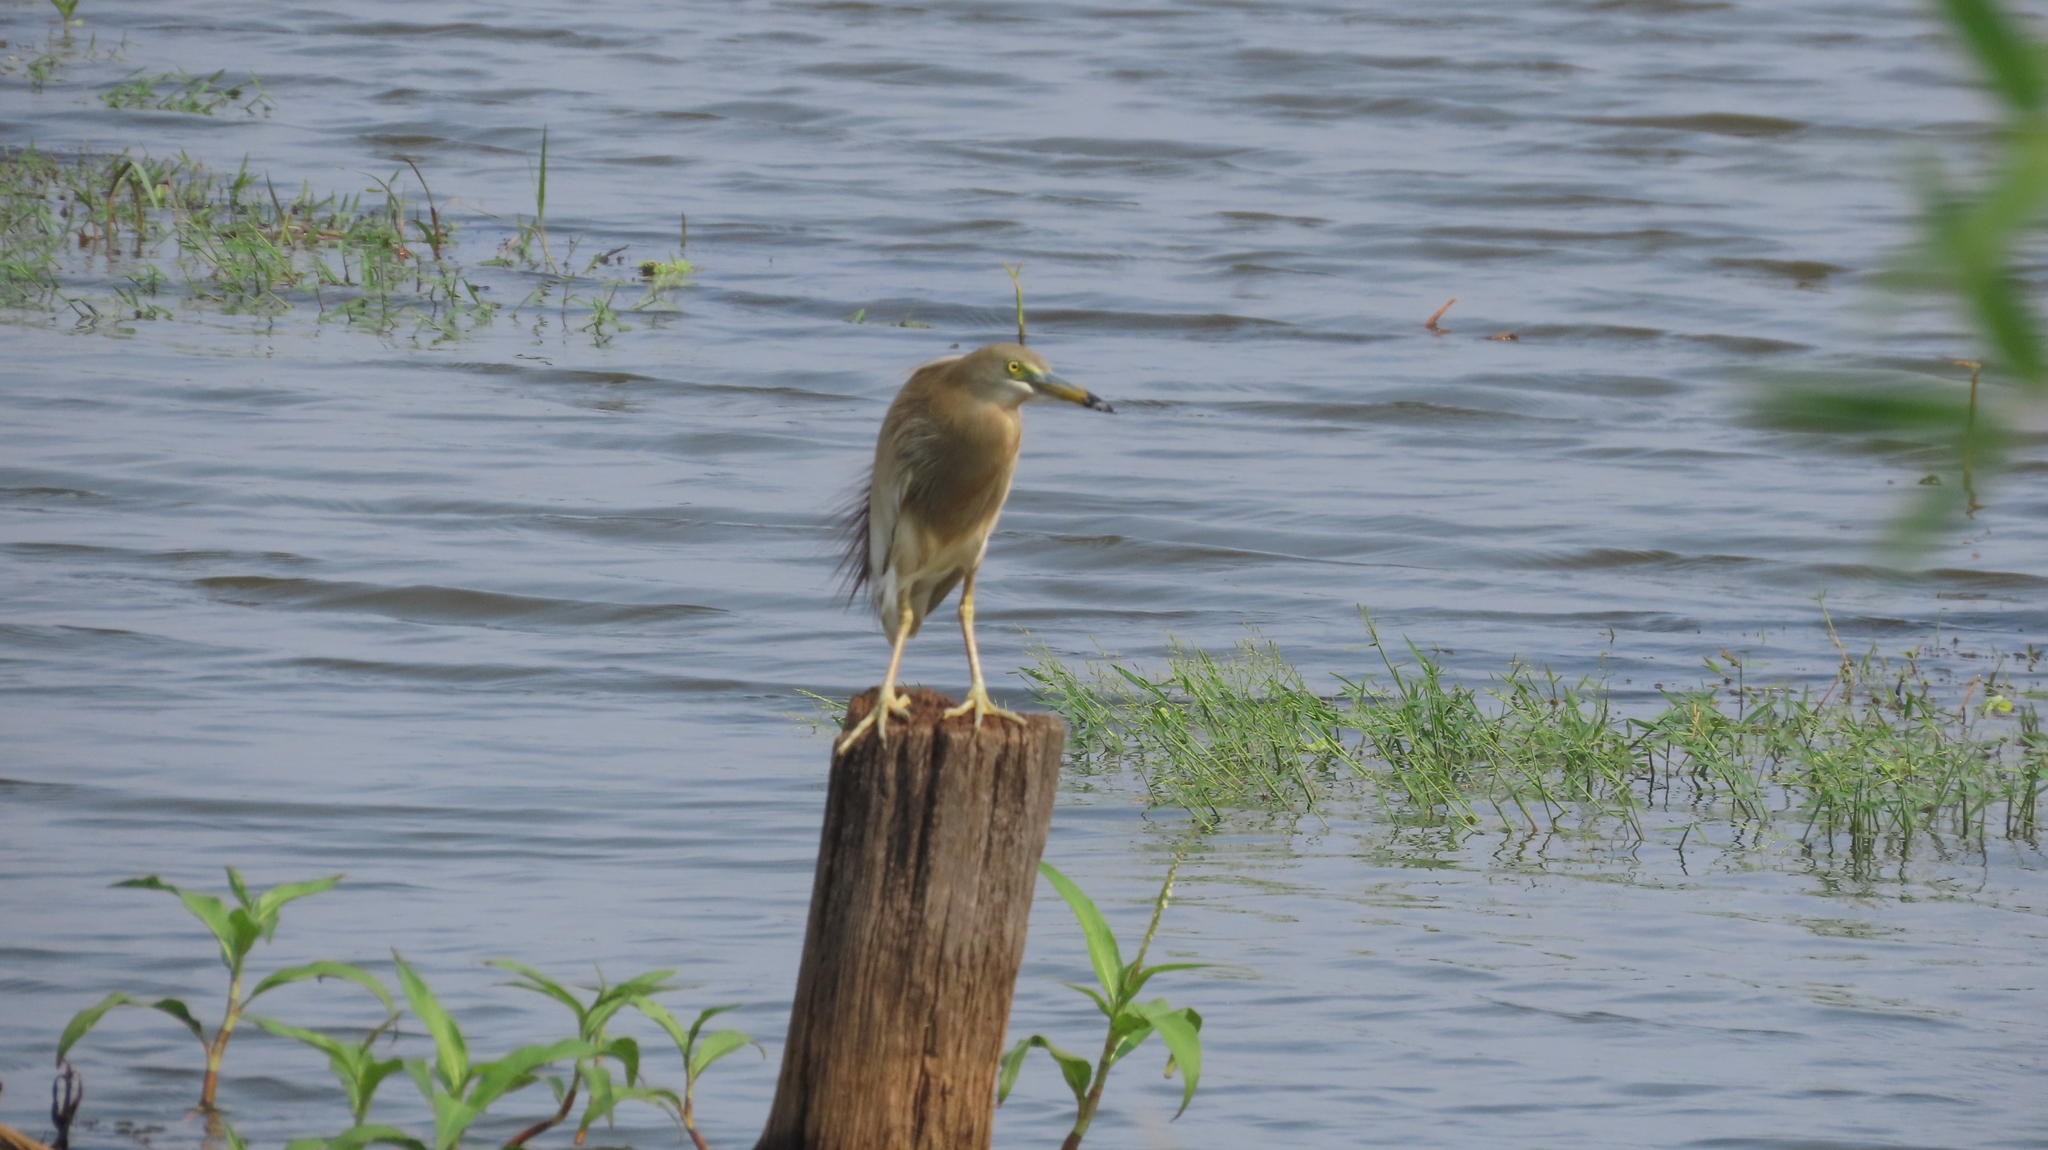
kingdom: Animalia
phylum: Chordata
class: Aves
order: Pelecaniformes
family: Ardeidae
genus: Ardeola
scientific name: Ardeola grayii
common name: Indian pond heron
